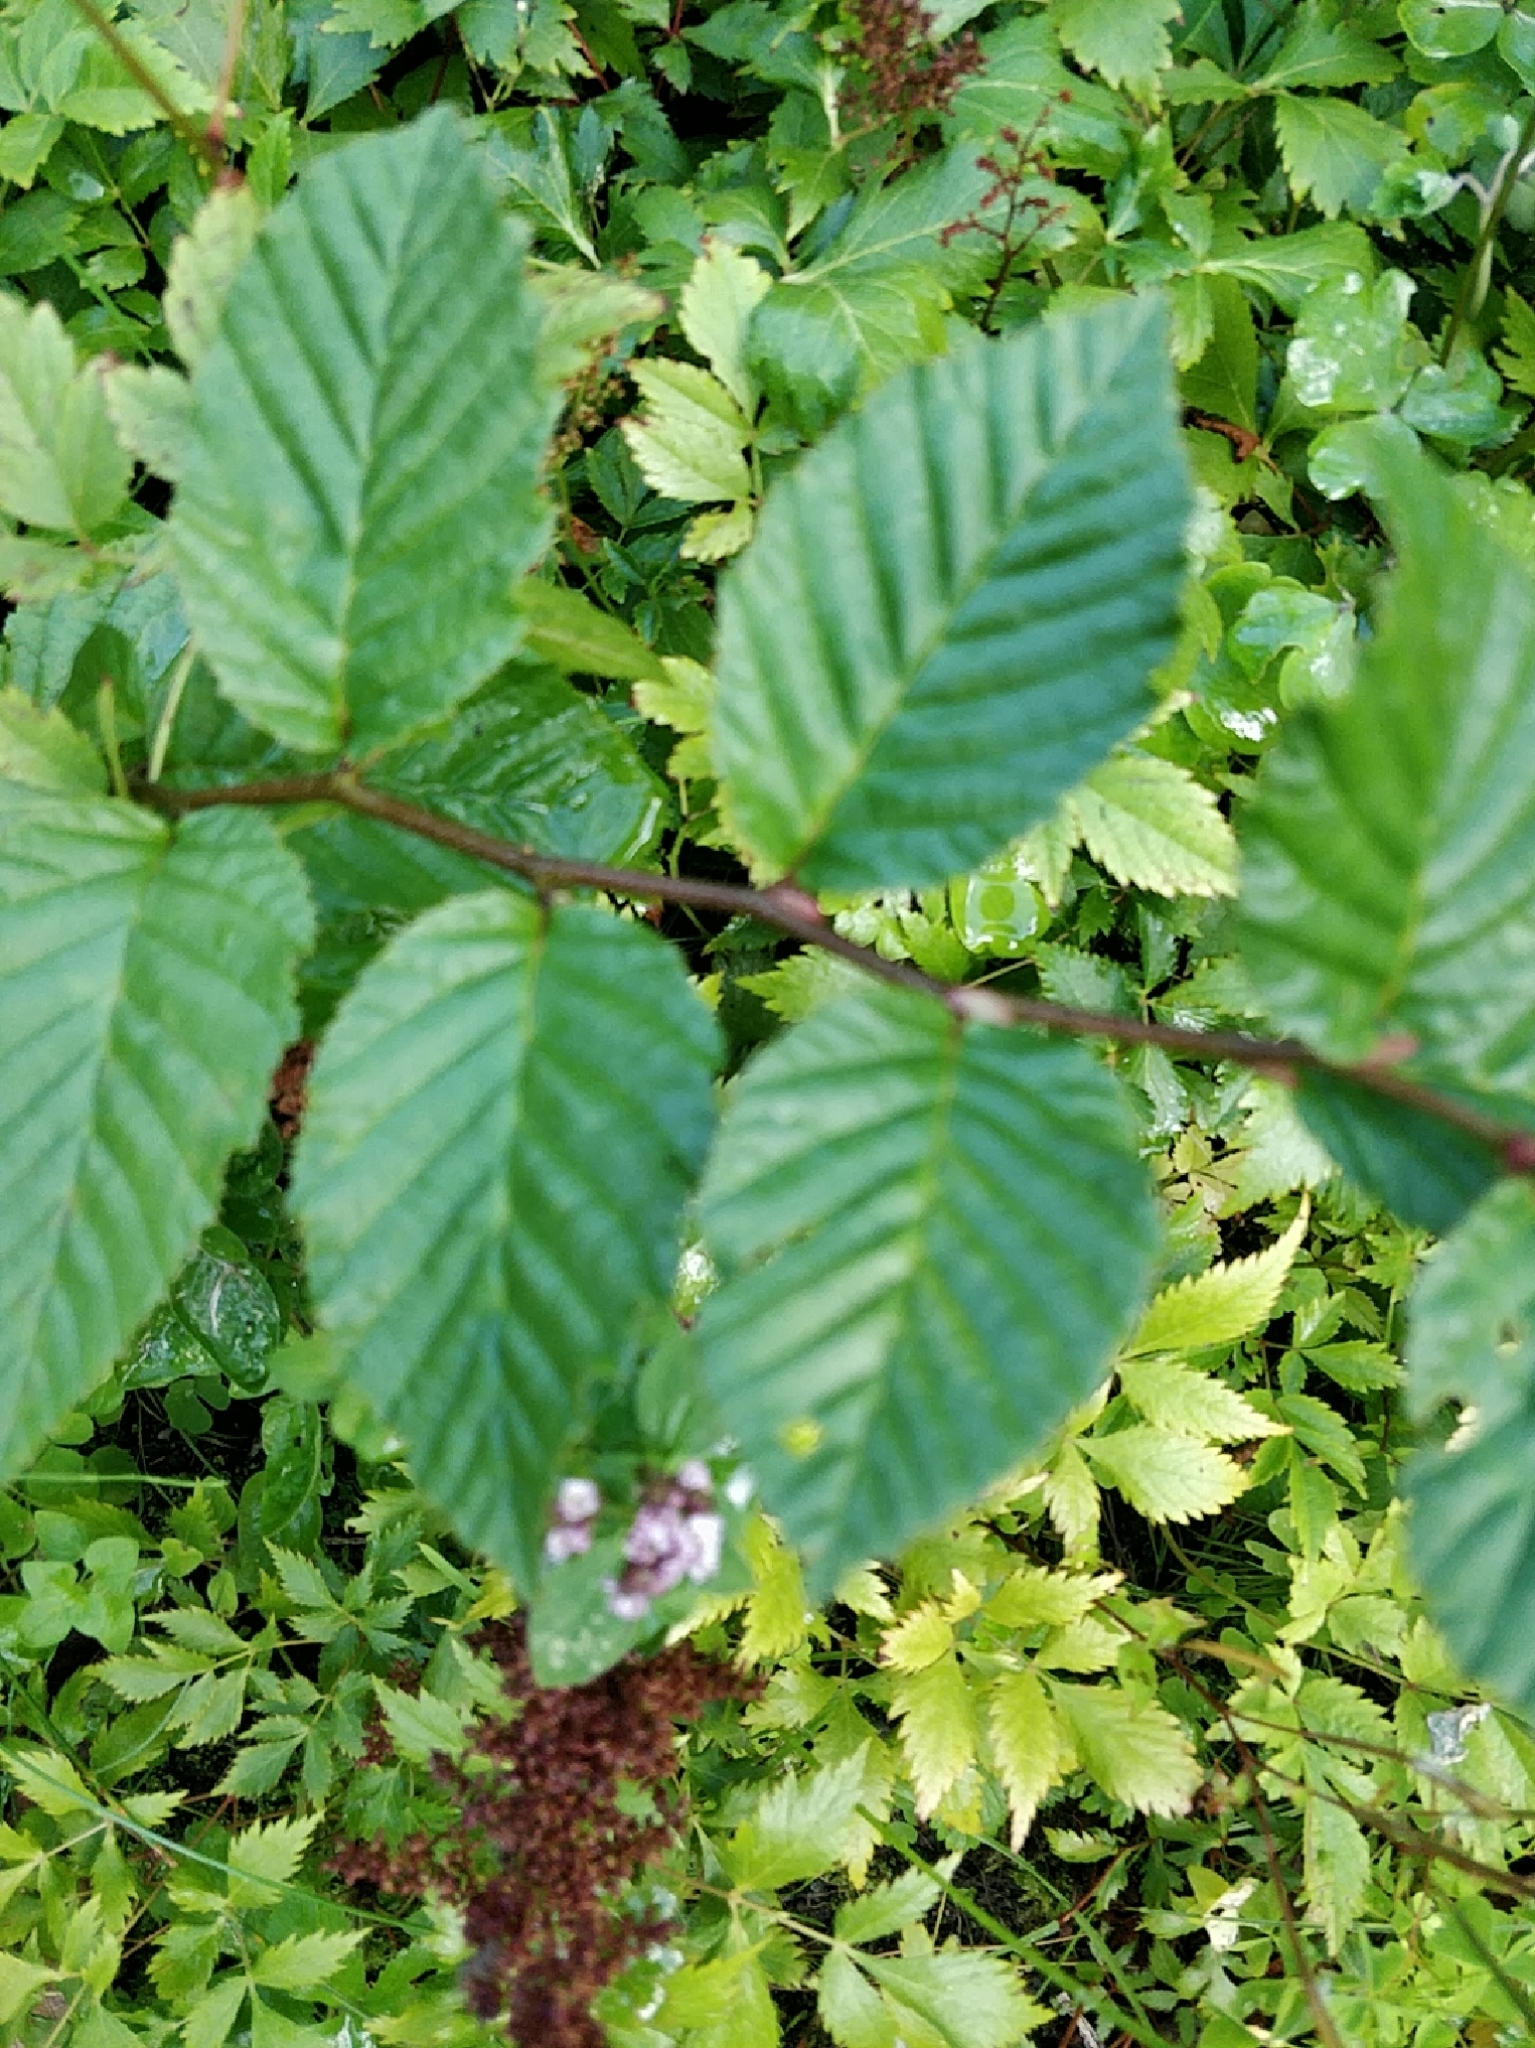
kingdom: Plantae
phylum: Tracheophyta
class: Magnoliopsida
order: Fagales
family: Betulaceae
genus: Carpinus
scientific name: Carpinus betulus
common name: Hornbeam
